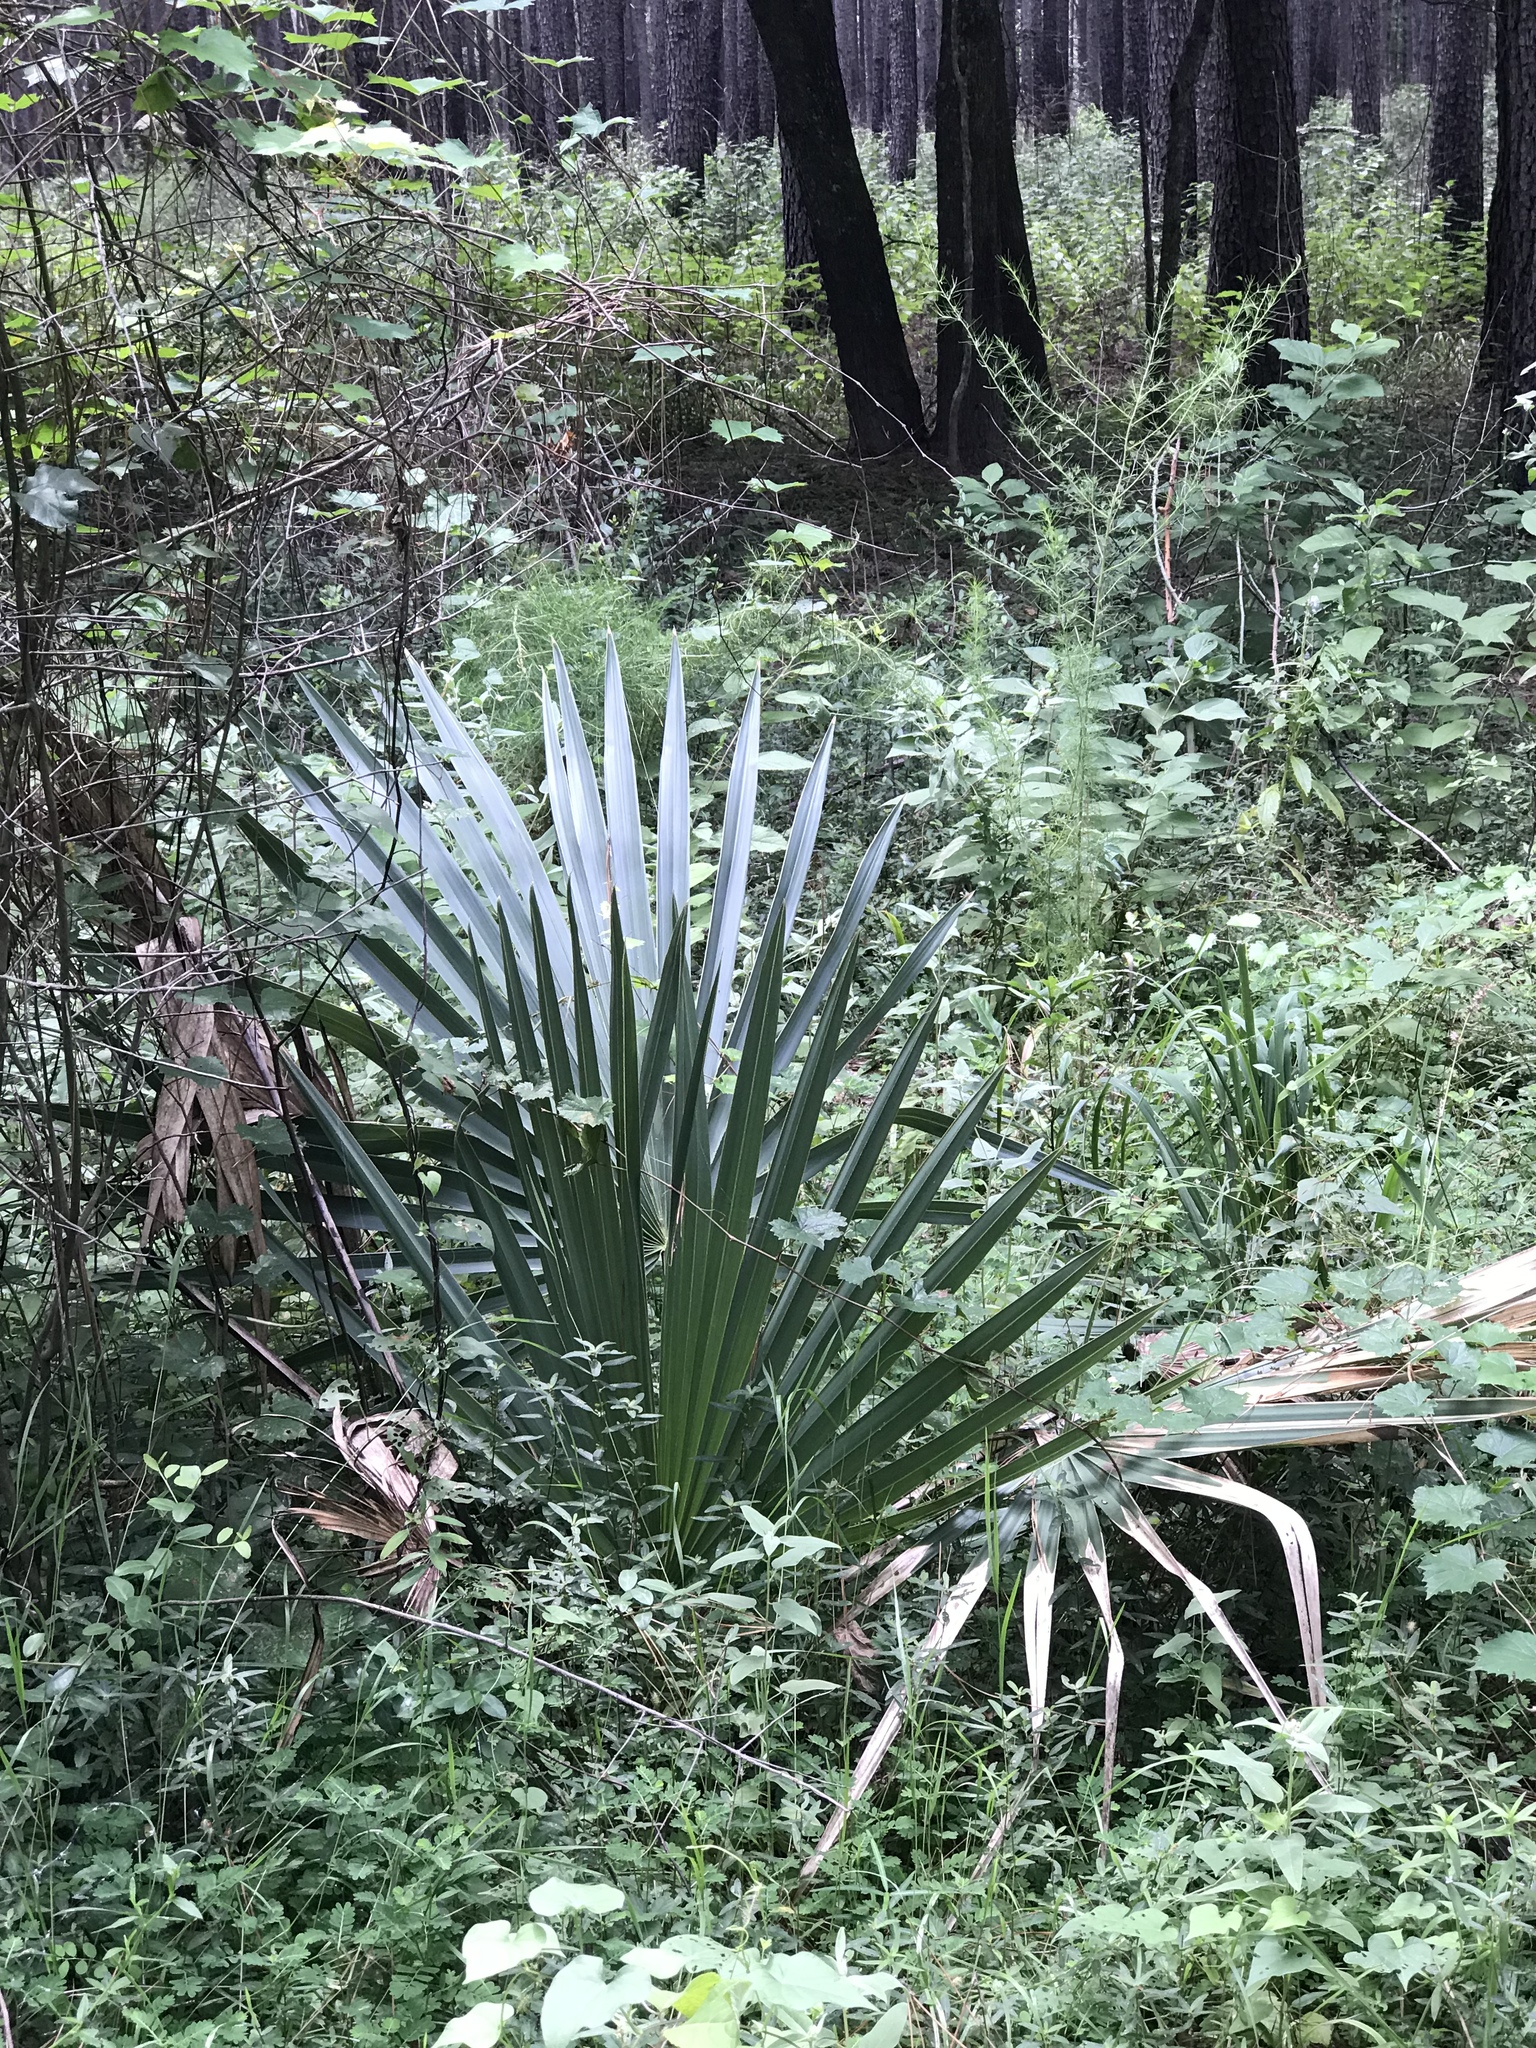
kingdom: Plantae
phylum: Tracheophyta
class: Liliopsida
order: Arecales
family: Arecaceae
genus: Sabal
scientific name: Sabal minor
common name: Dwarf palmetto
